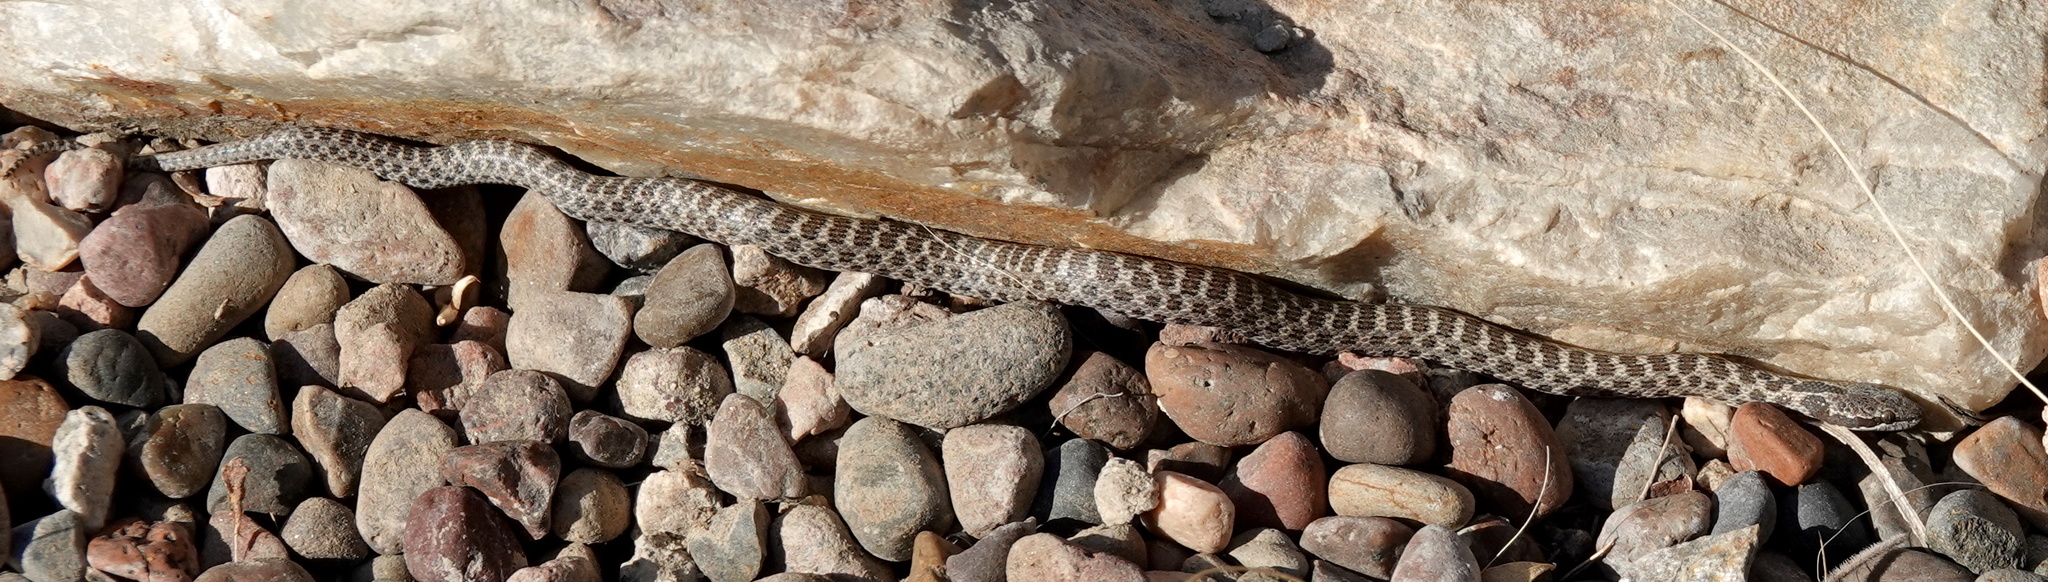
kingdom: Animalia
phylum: Chordata
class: Squamata
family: Colubridae
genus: Hypsiglena
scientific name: Hypsiglena chlorophaea
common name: Desert nightsnake
